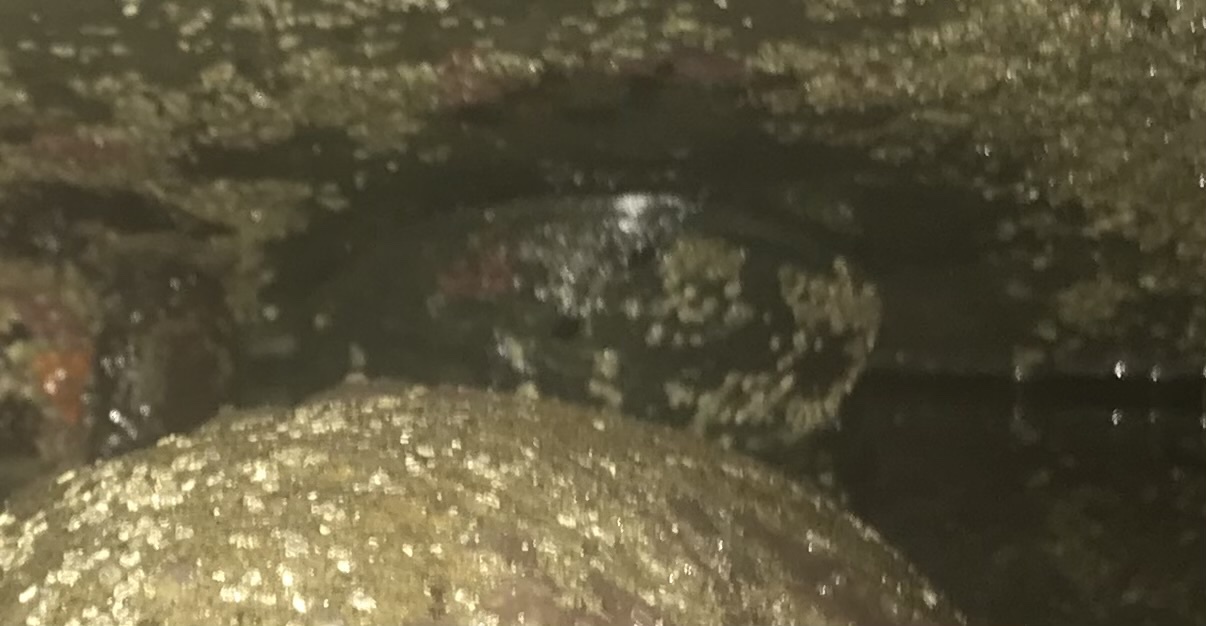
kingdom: Animalia
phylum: Mollusca
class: Gastropoda
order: Lepetellida
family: Haliotidae
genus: Haliotis
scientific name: Haliotis cracherodii
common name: Black abalone
